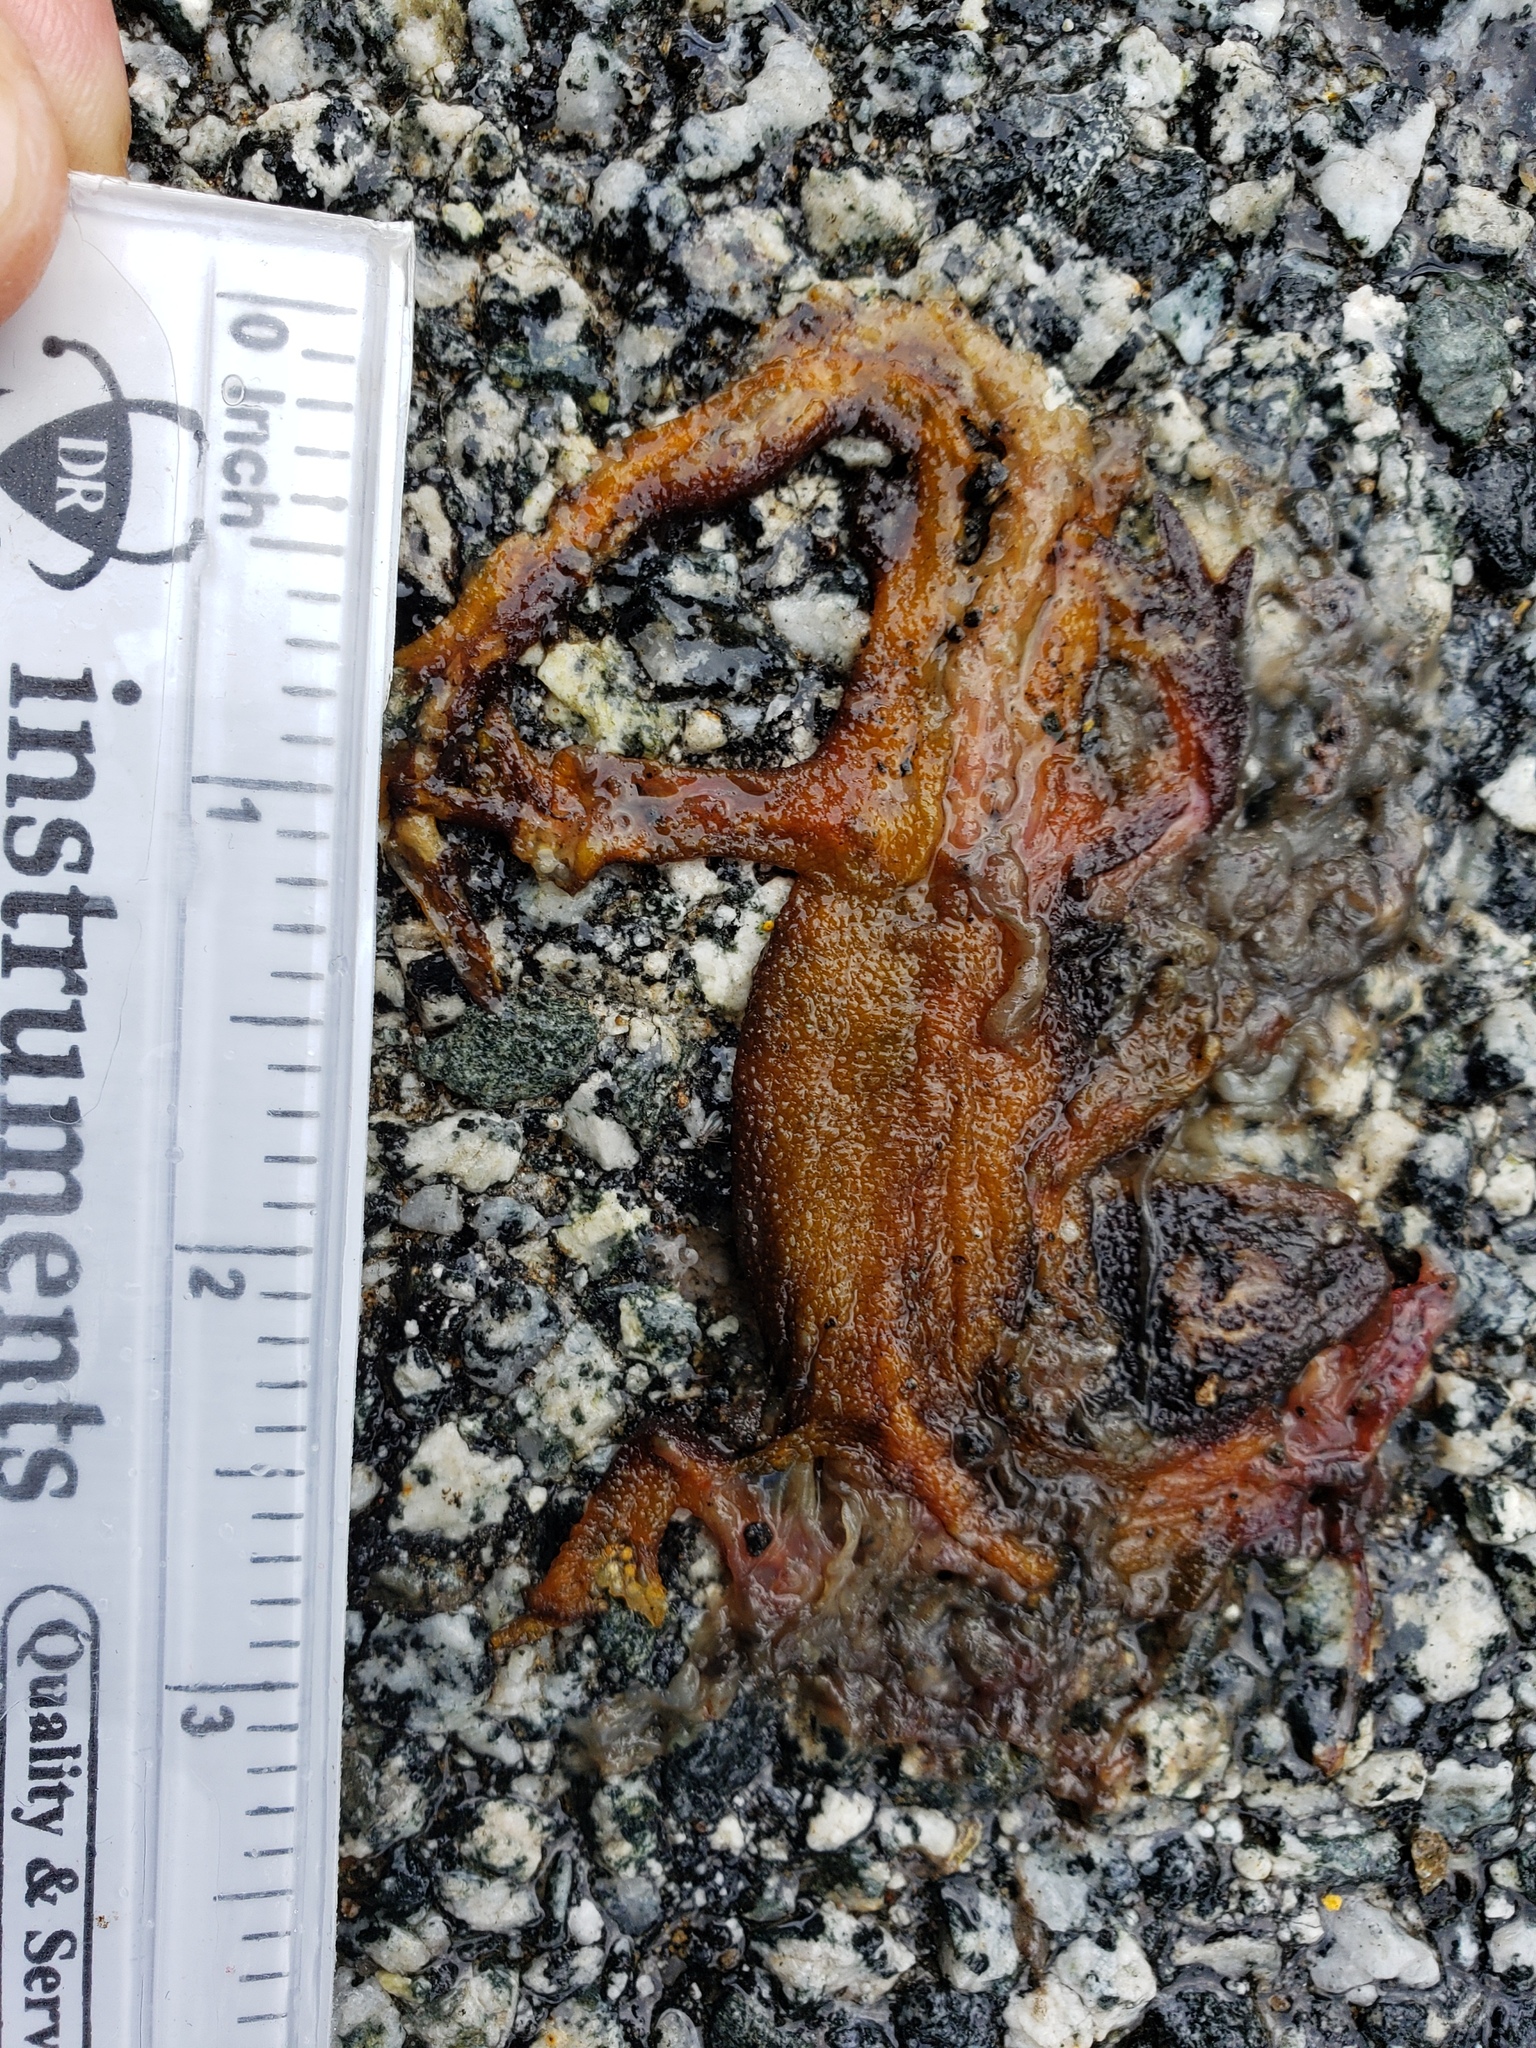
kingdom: Animalia
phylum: Chordata
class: Amphibia
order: Caudata
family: Salamandridae
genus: Taricha
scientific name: Taricha
